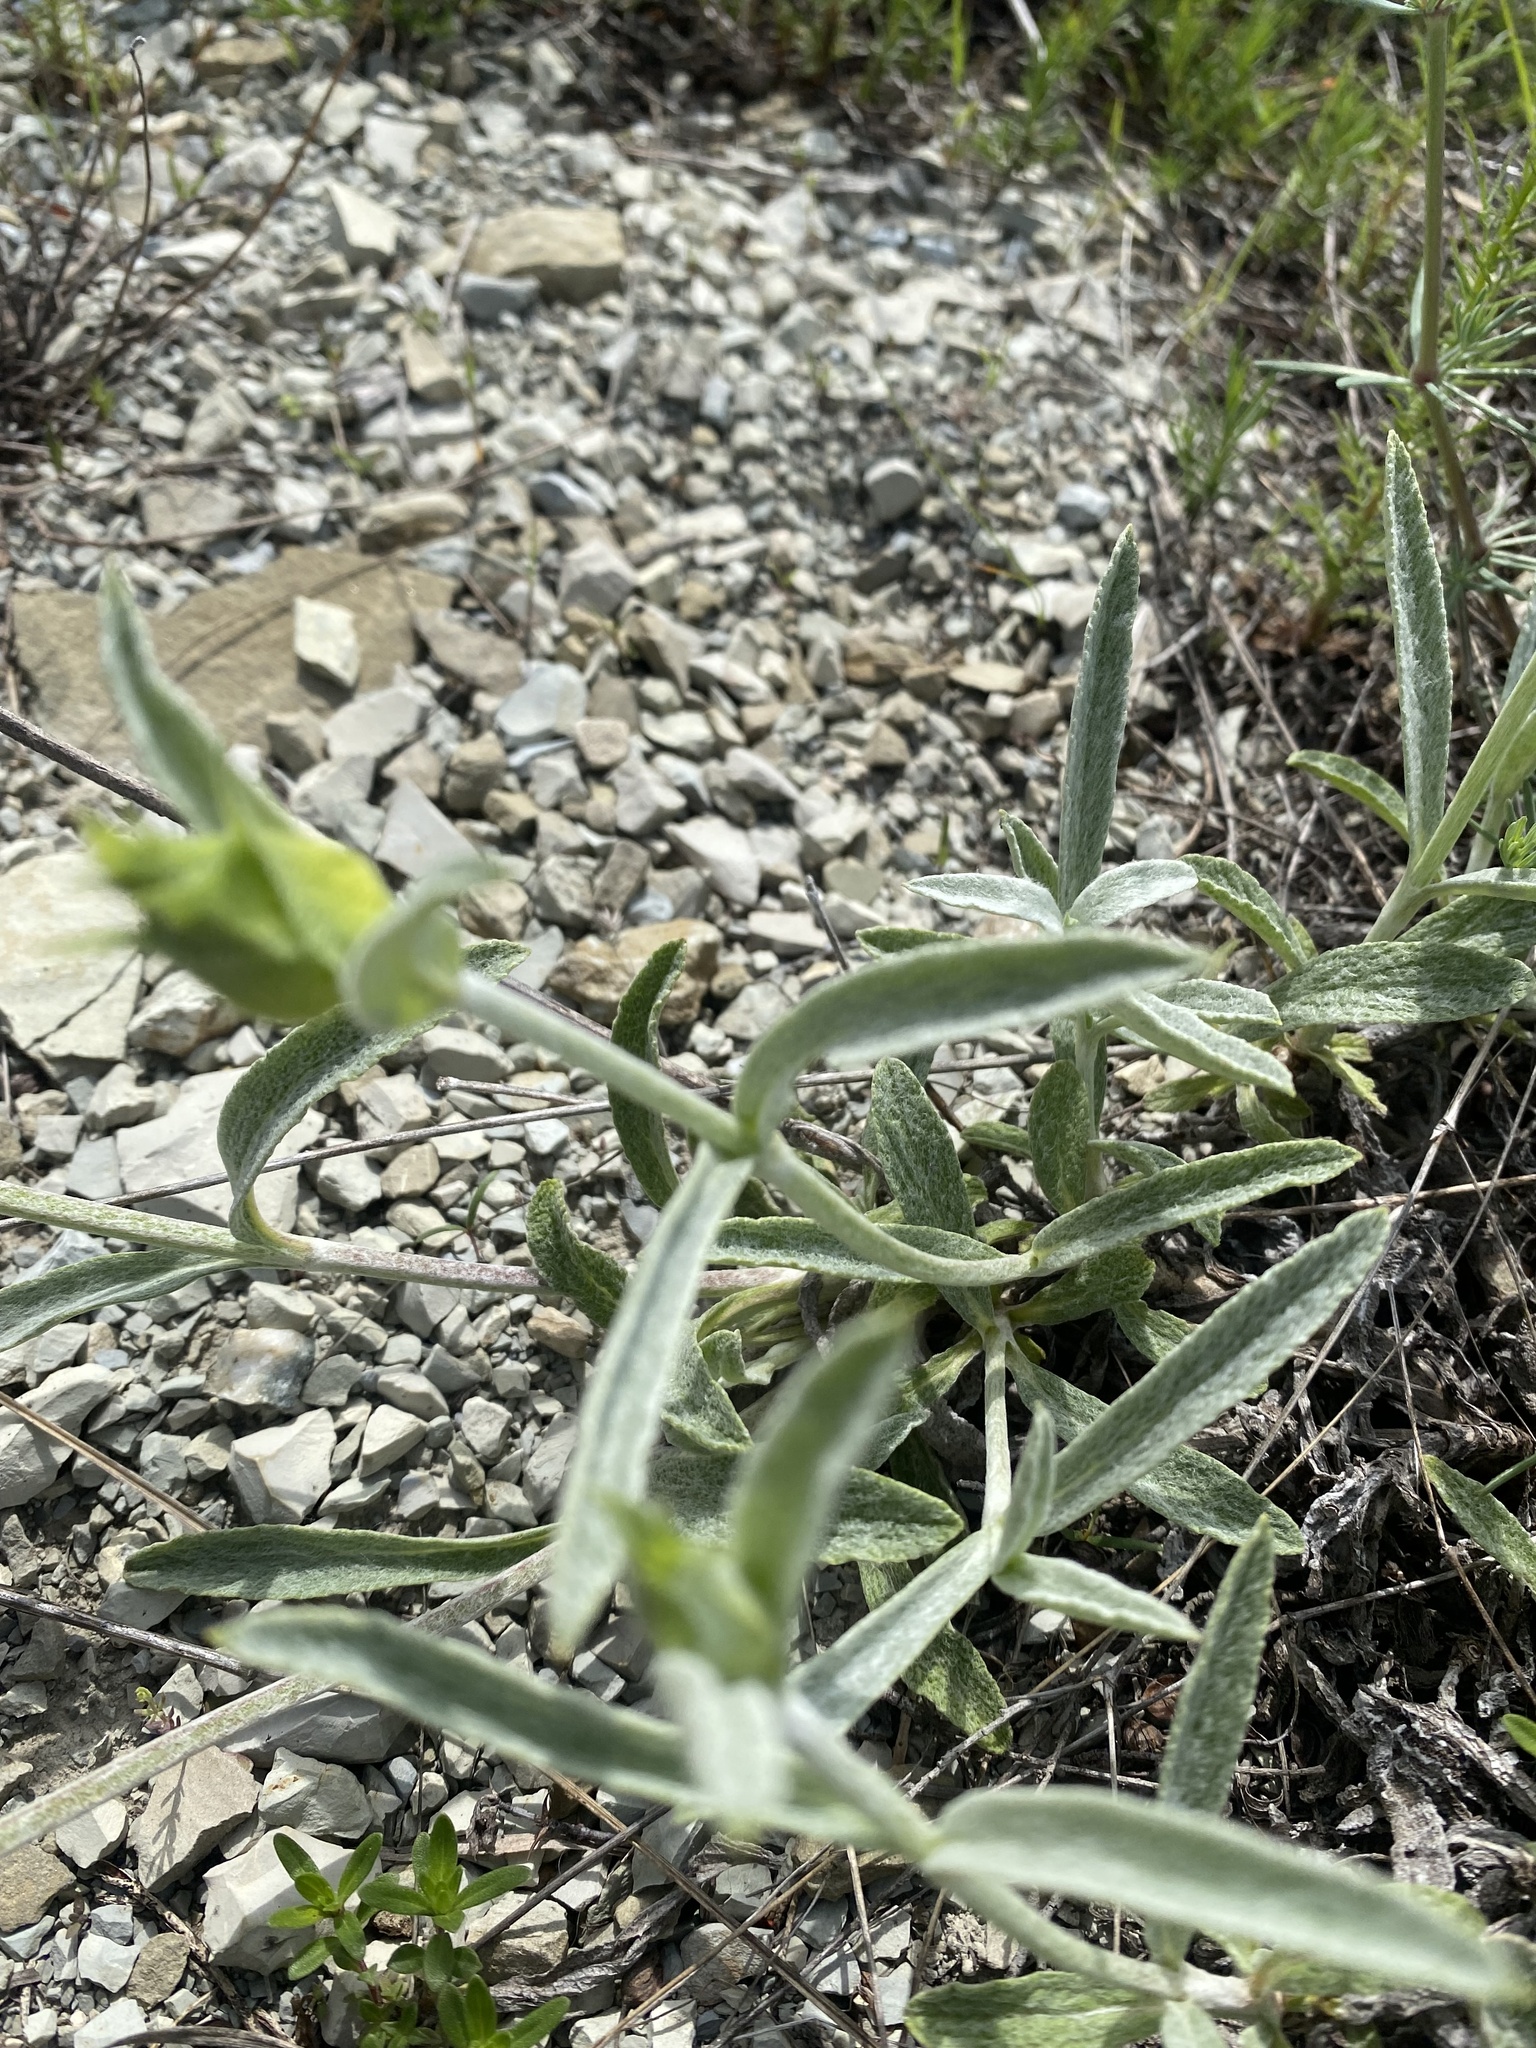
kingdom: Plantae
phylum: Tracheophyta
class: Magnoliopsida
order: Lamiales
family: Lamiaceae
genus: Sideritis
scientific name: Sideritis euxina
